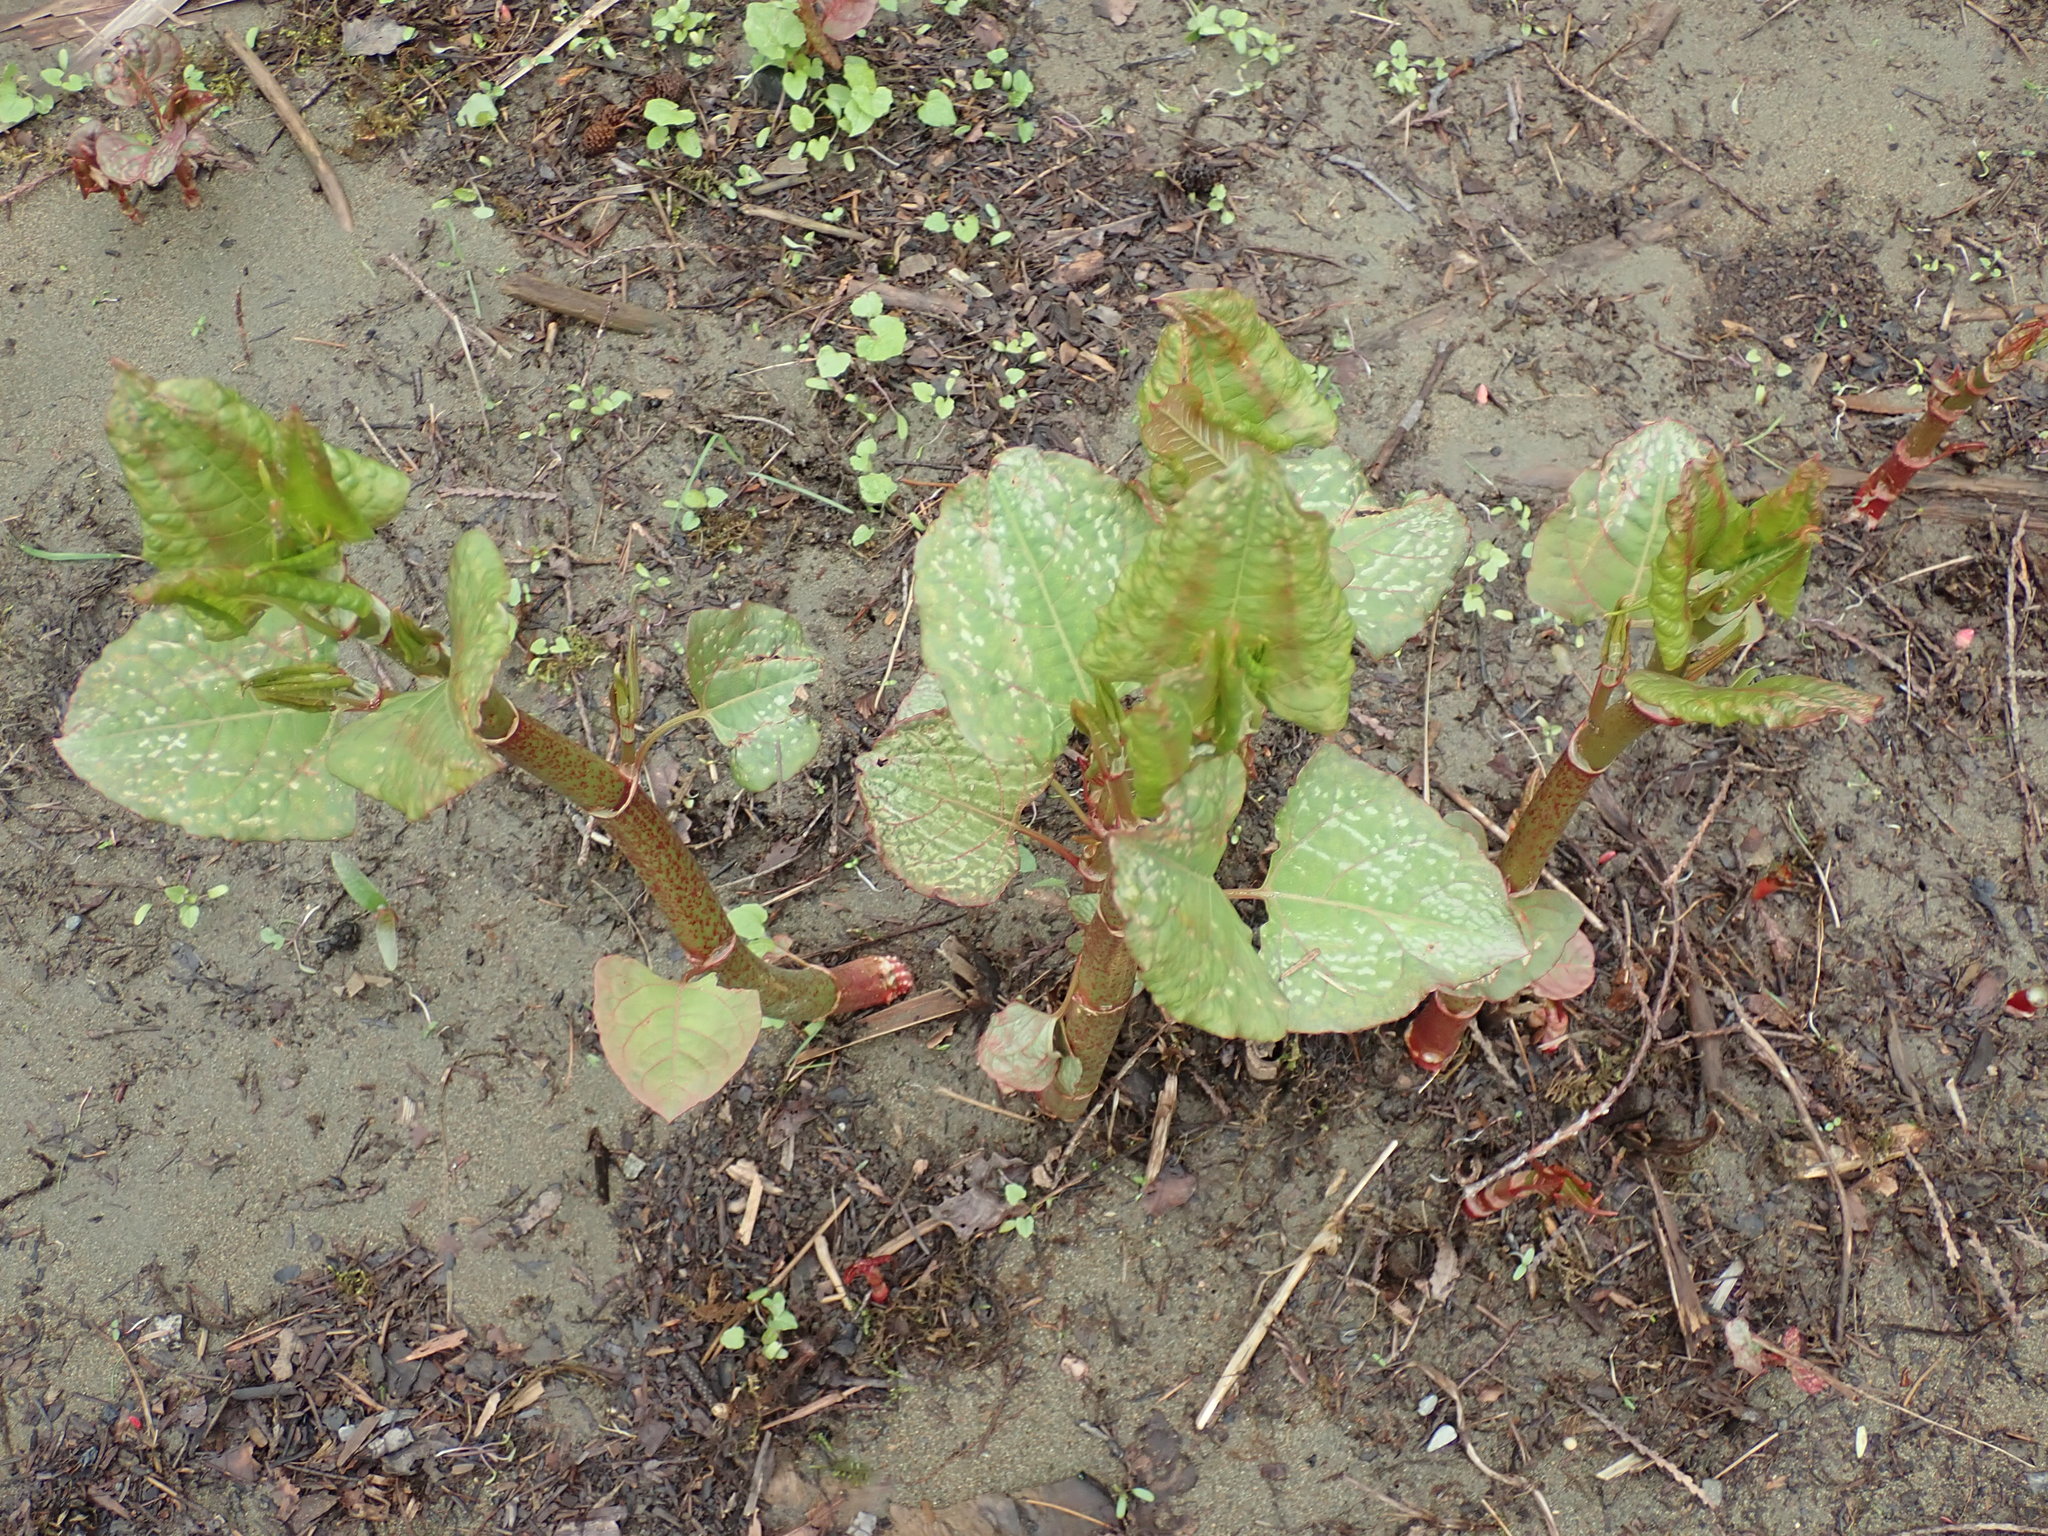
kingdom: Plantae
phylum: Tracheophyta
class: Magnoliopsida
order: Caryophyllales
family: Polygonaceae
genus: Reynoutria
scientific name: Reynoutria japonica
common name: Japanese knotweed
